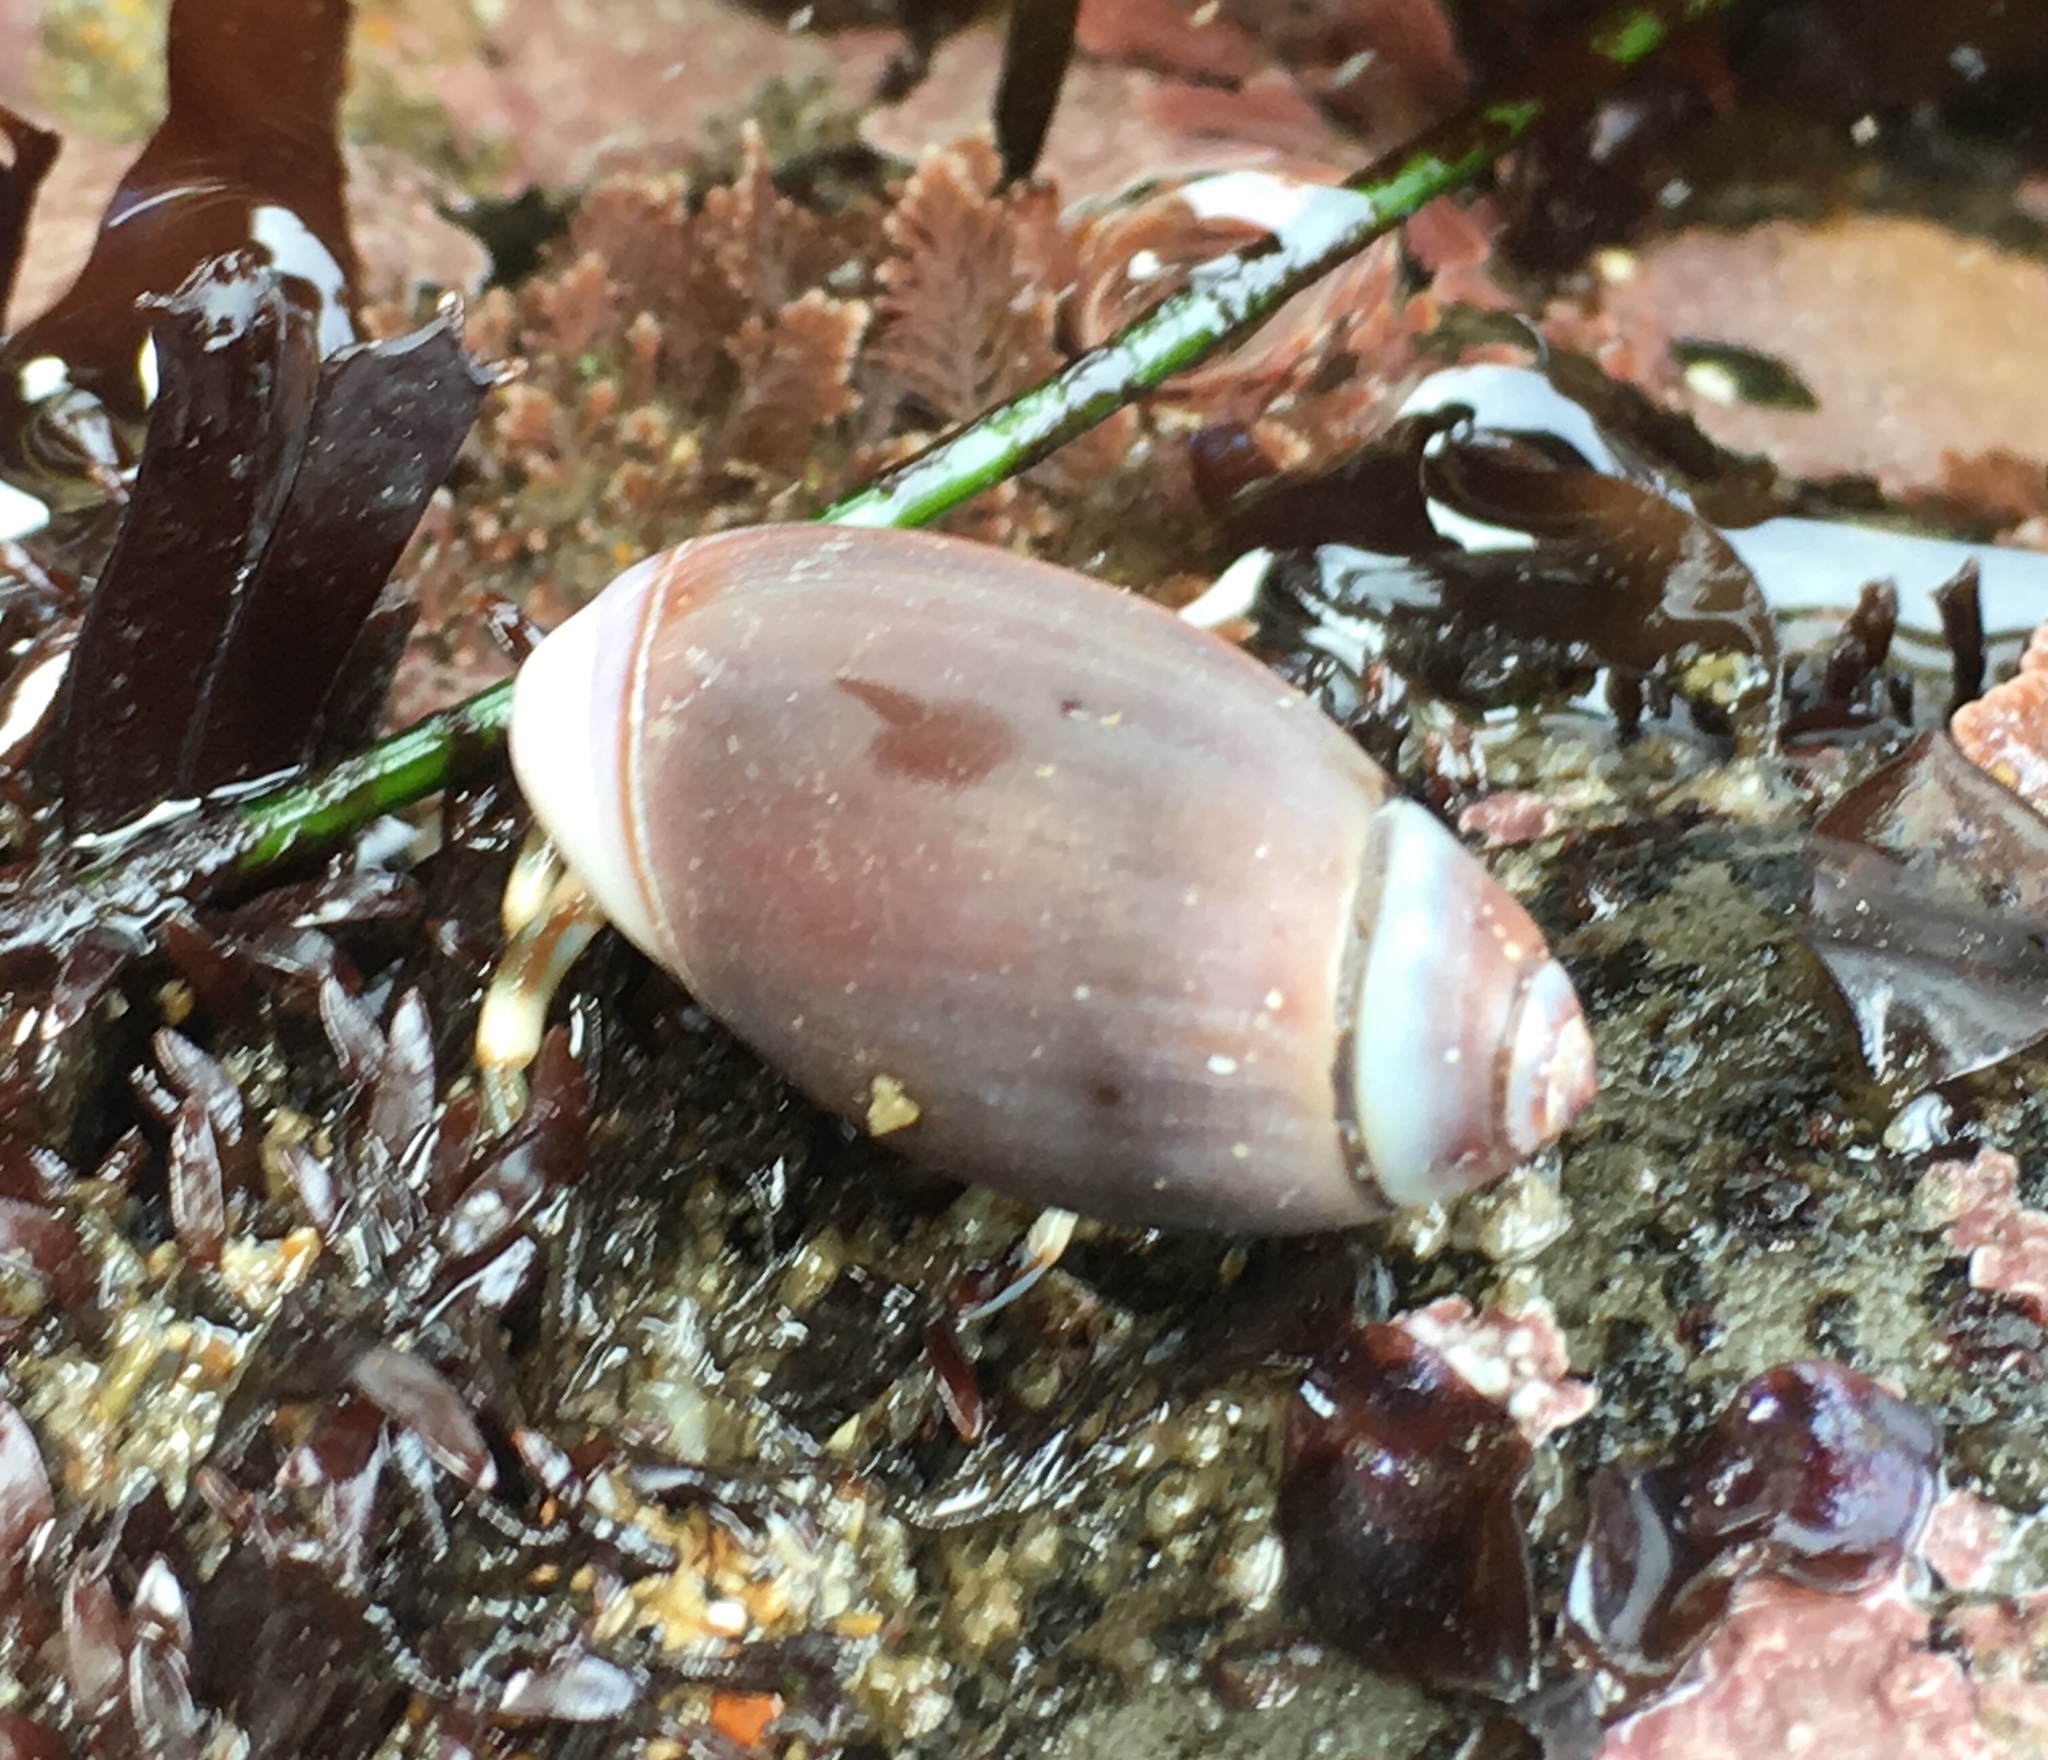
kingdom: Animalia
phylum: Mollusca
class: Gastropoda
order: Neogastropoda
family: Olividae
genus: Callianax
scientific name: Callianax biplicata
